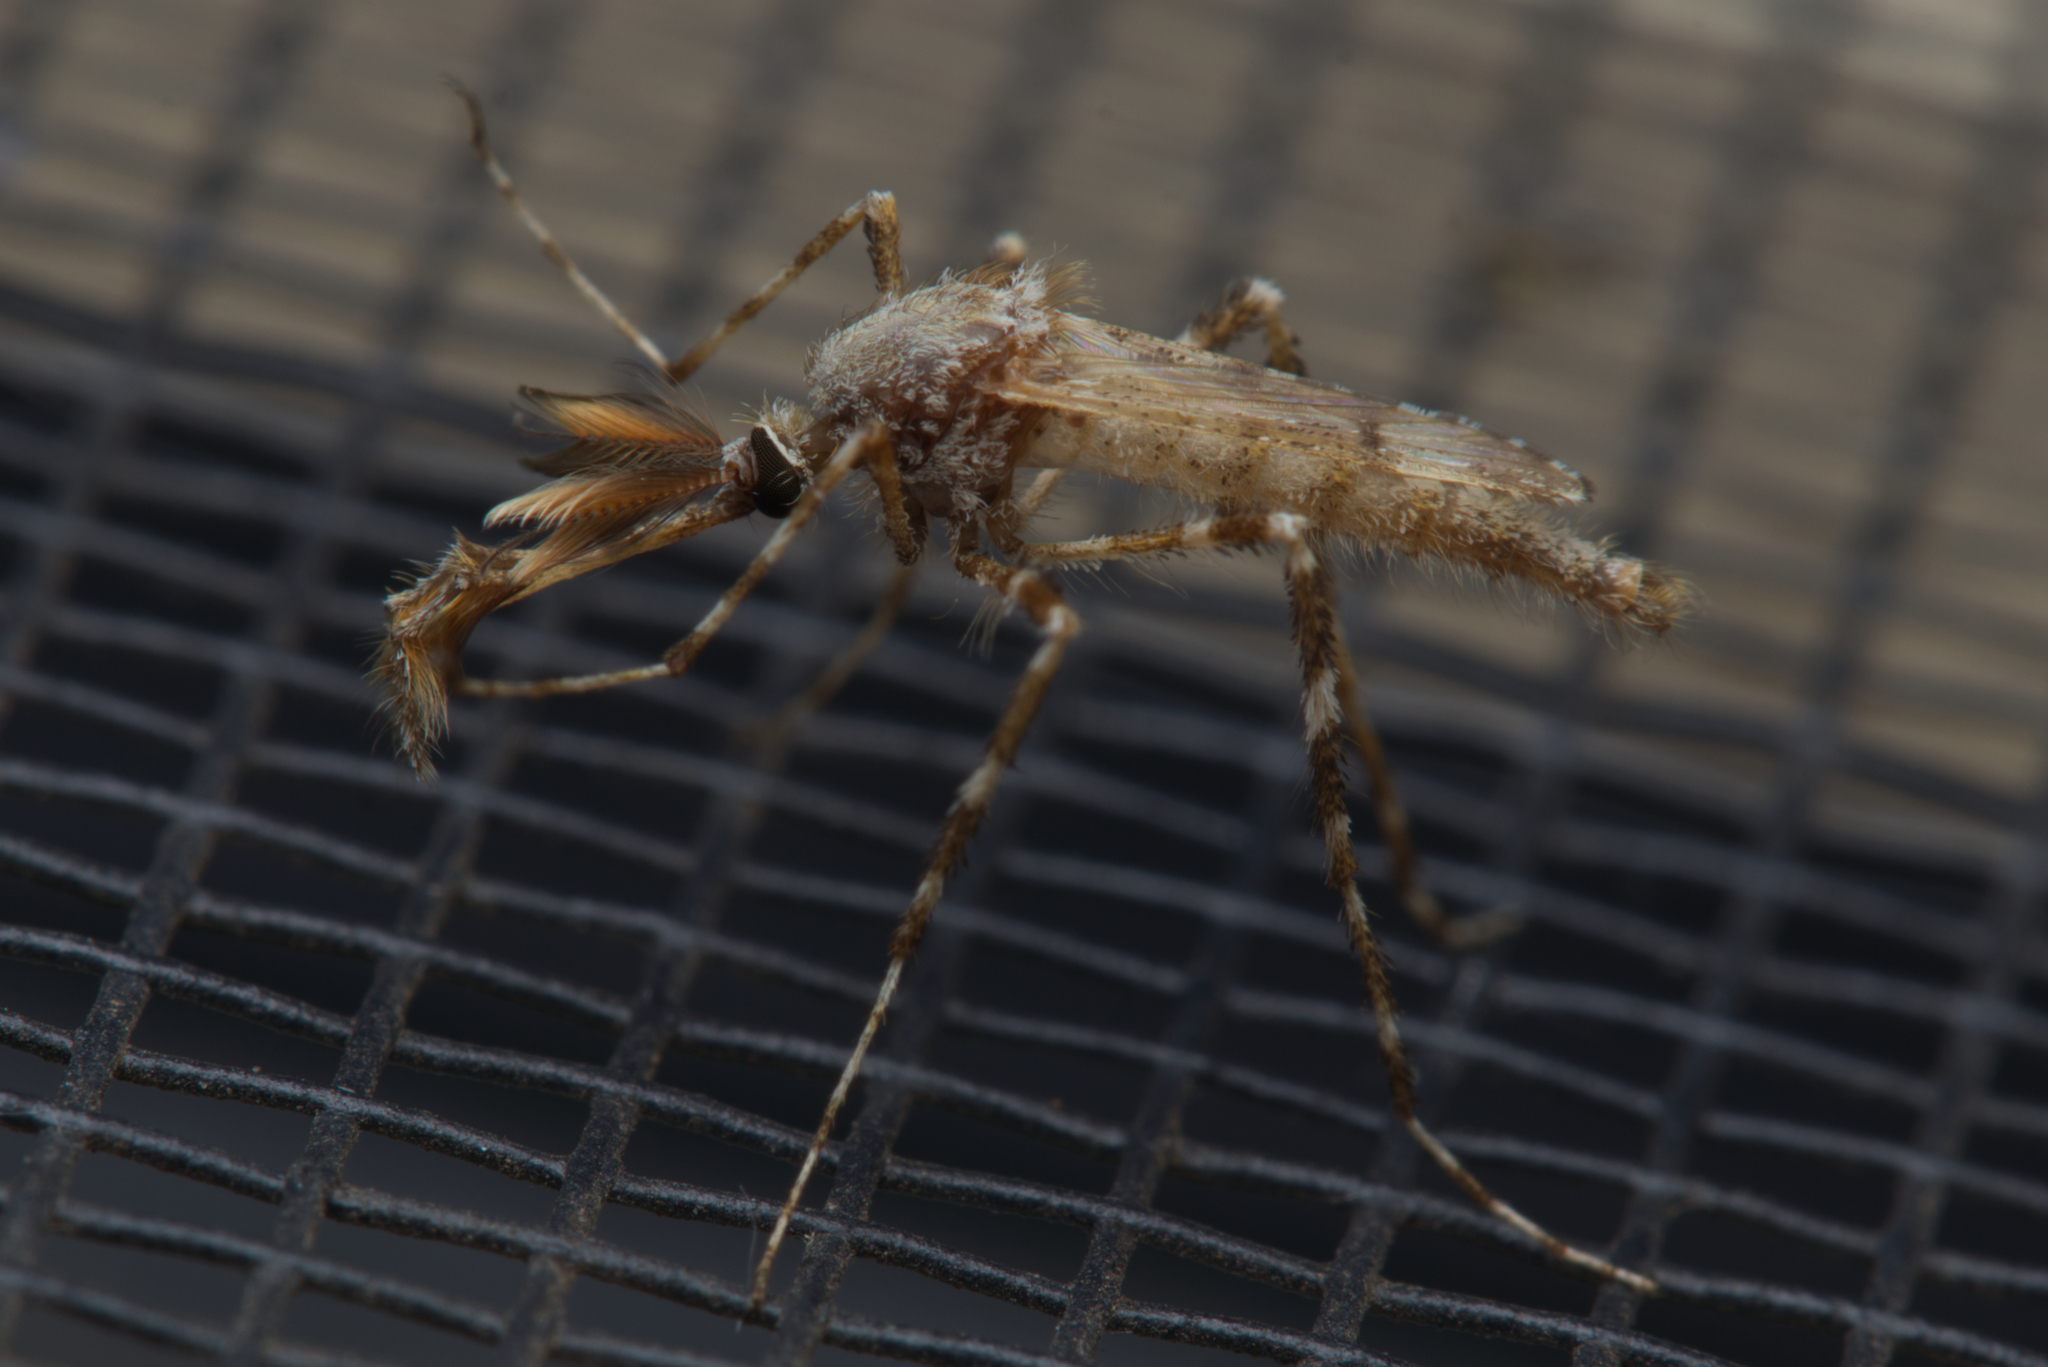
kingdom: Animalia
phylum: Arthropoda
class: Insecta
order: Diptera
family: Culicidae
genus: Aedes
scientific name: Aedes alternans
